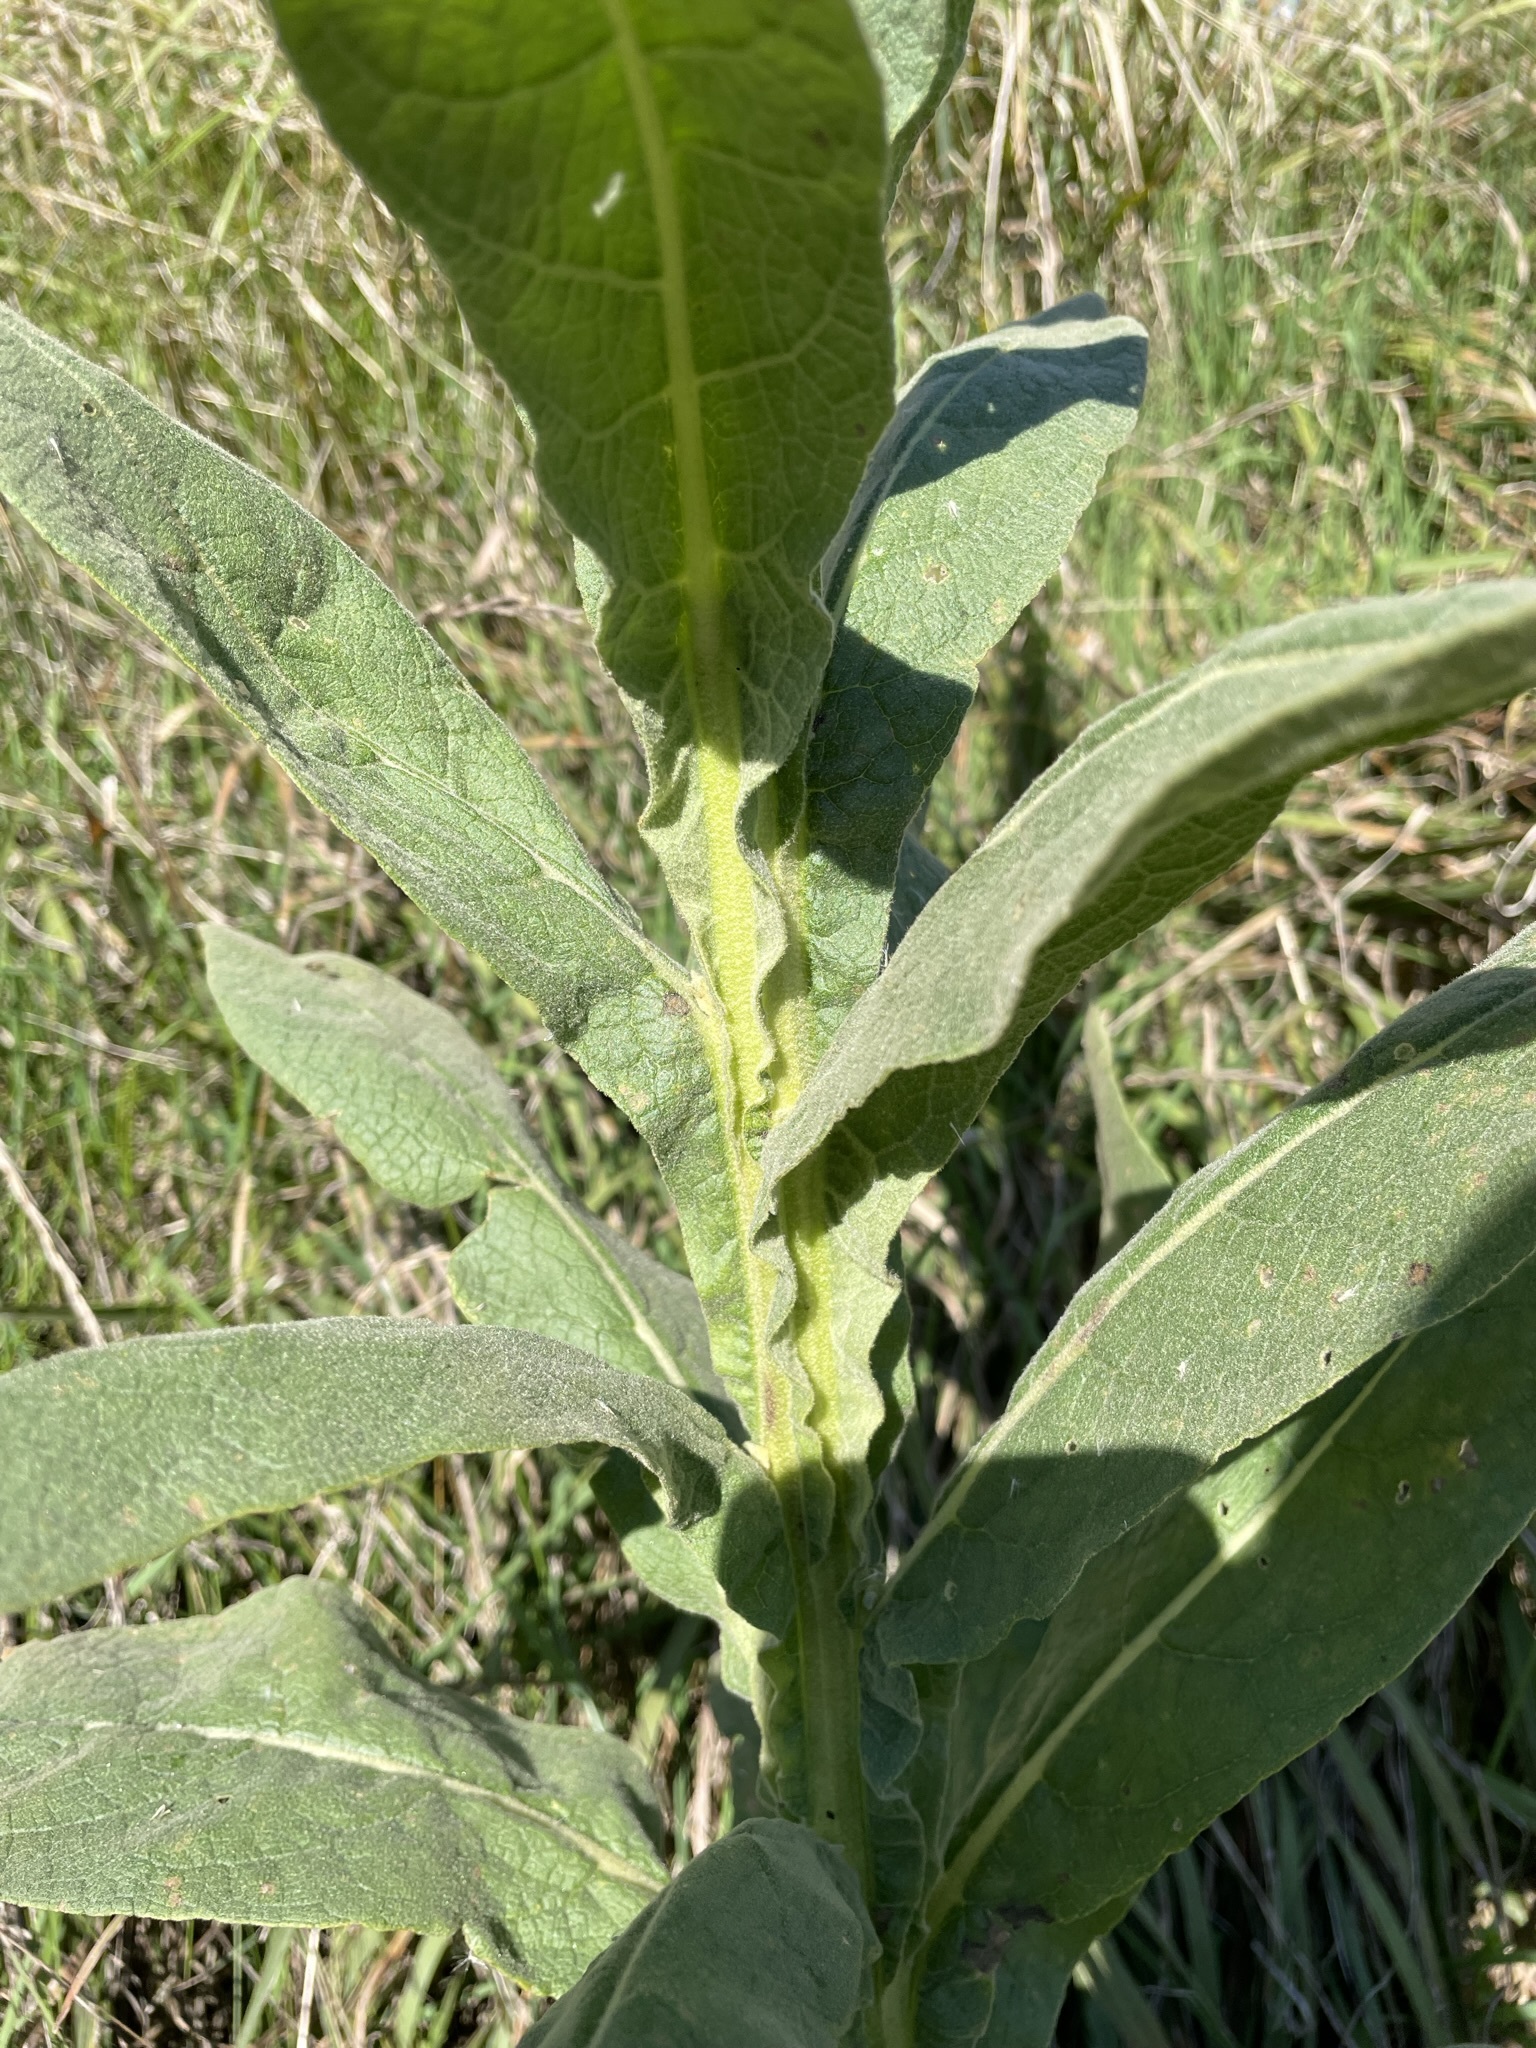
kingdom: Plantae
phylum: Tracheophyta
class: Magnoliopsida
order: Lamiales
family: Scrophulariaceae
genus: Verbascum
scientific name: Verbascum thapsus
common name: Common mullein
